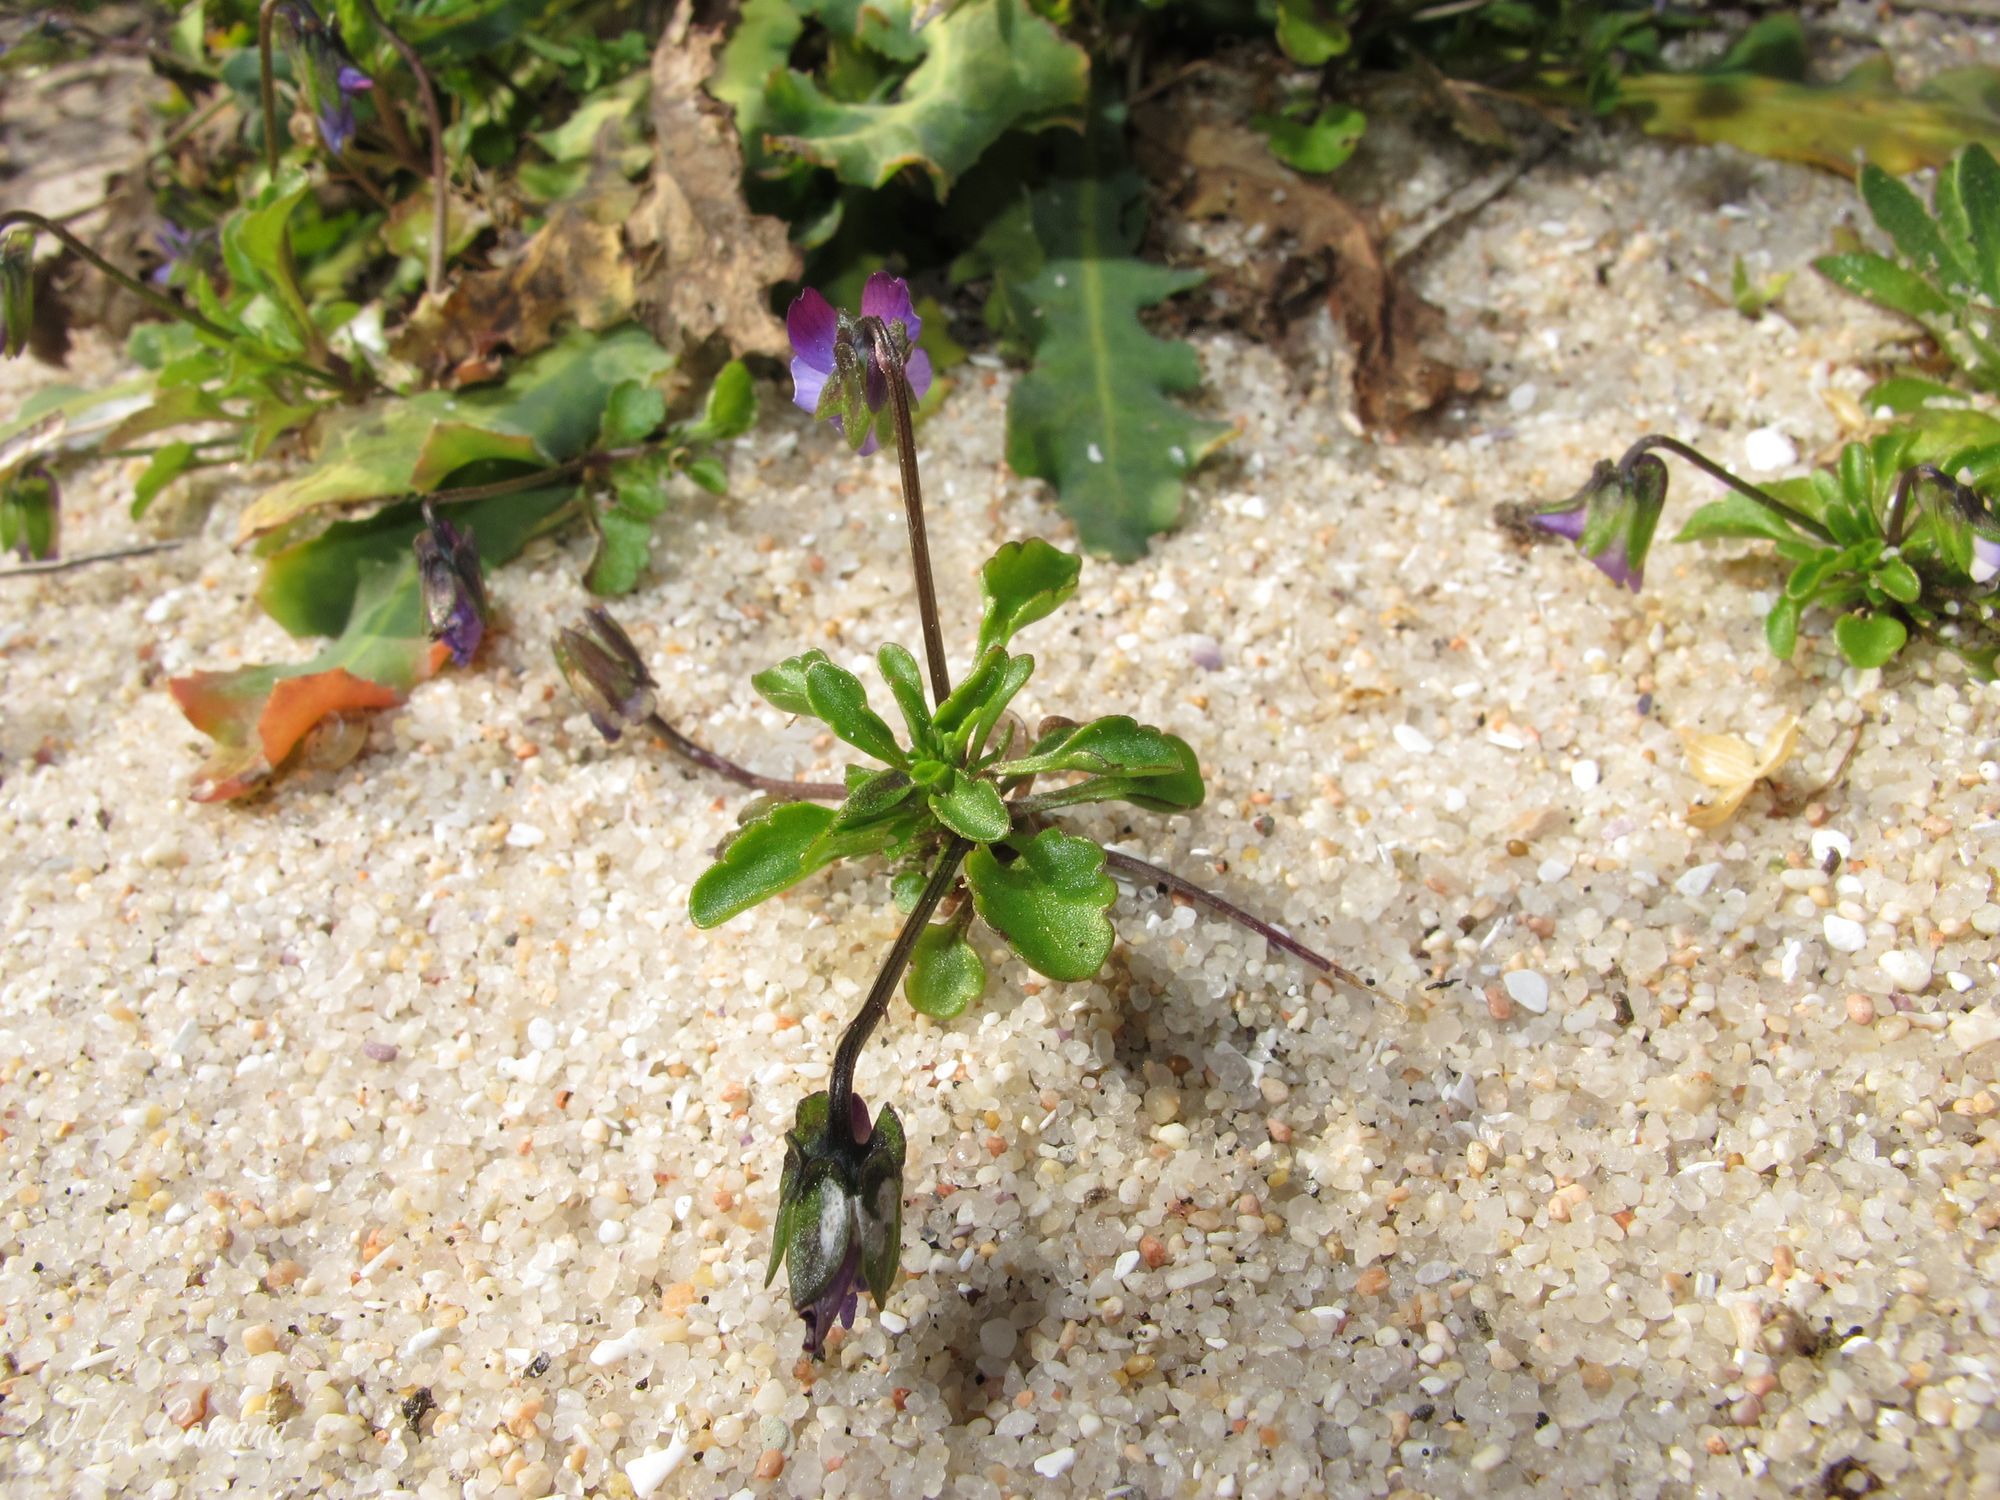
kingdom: Plantae
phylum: Tracheophyta
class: Magnoliopsida
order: Malpighiales
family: Violaceae
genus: Viola
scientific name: Viola kitaibeliana
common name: Dwarf pansy
